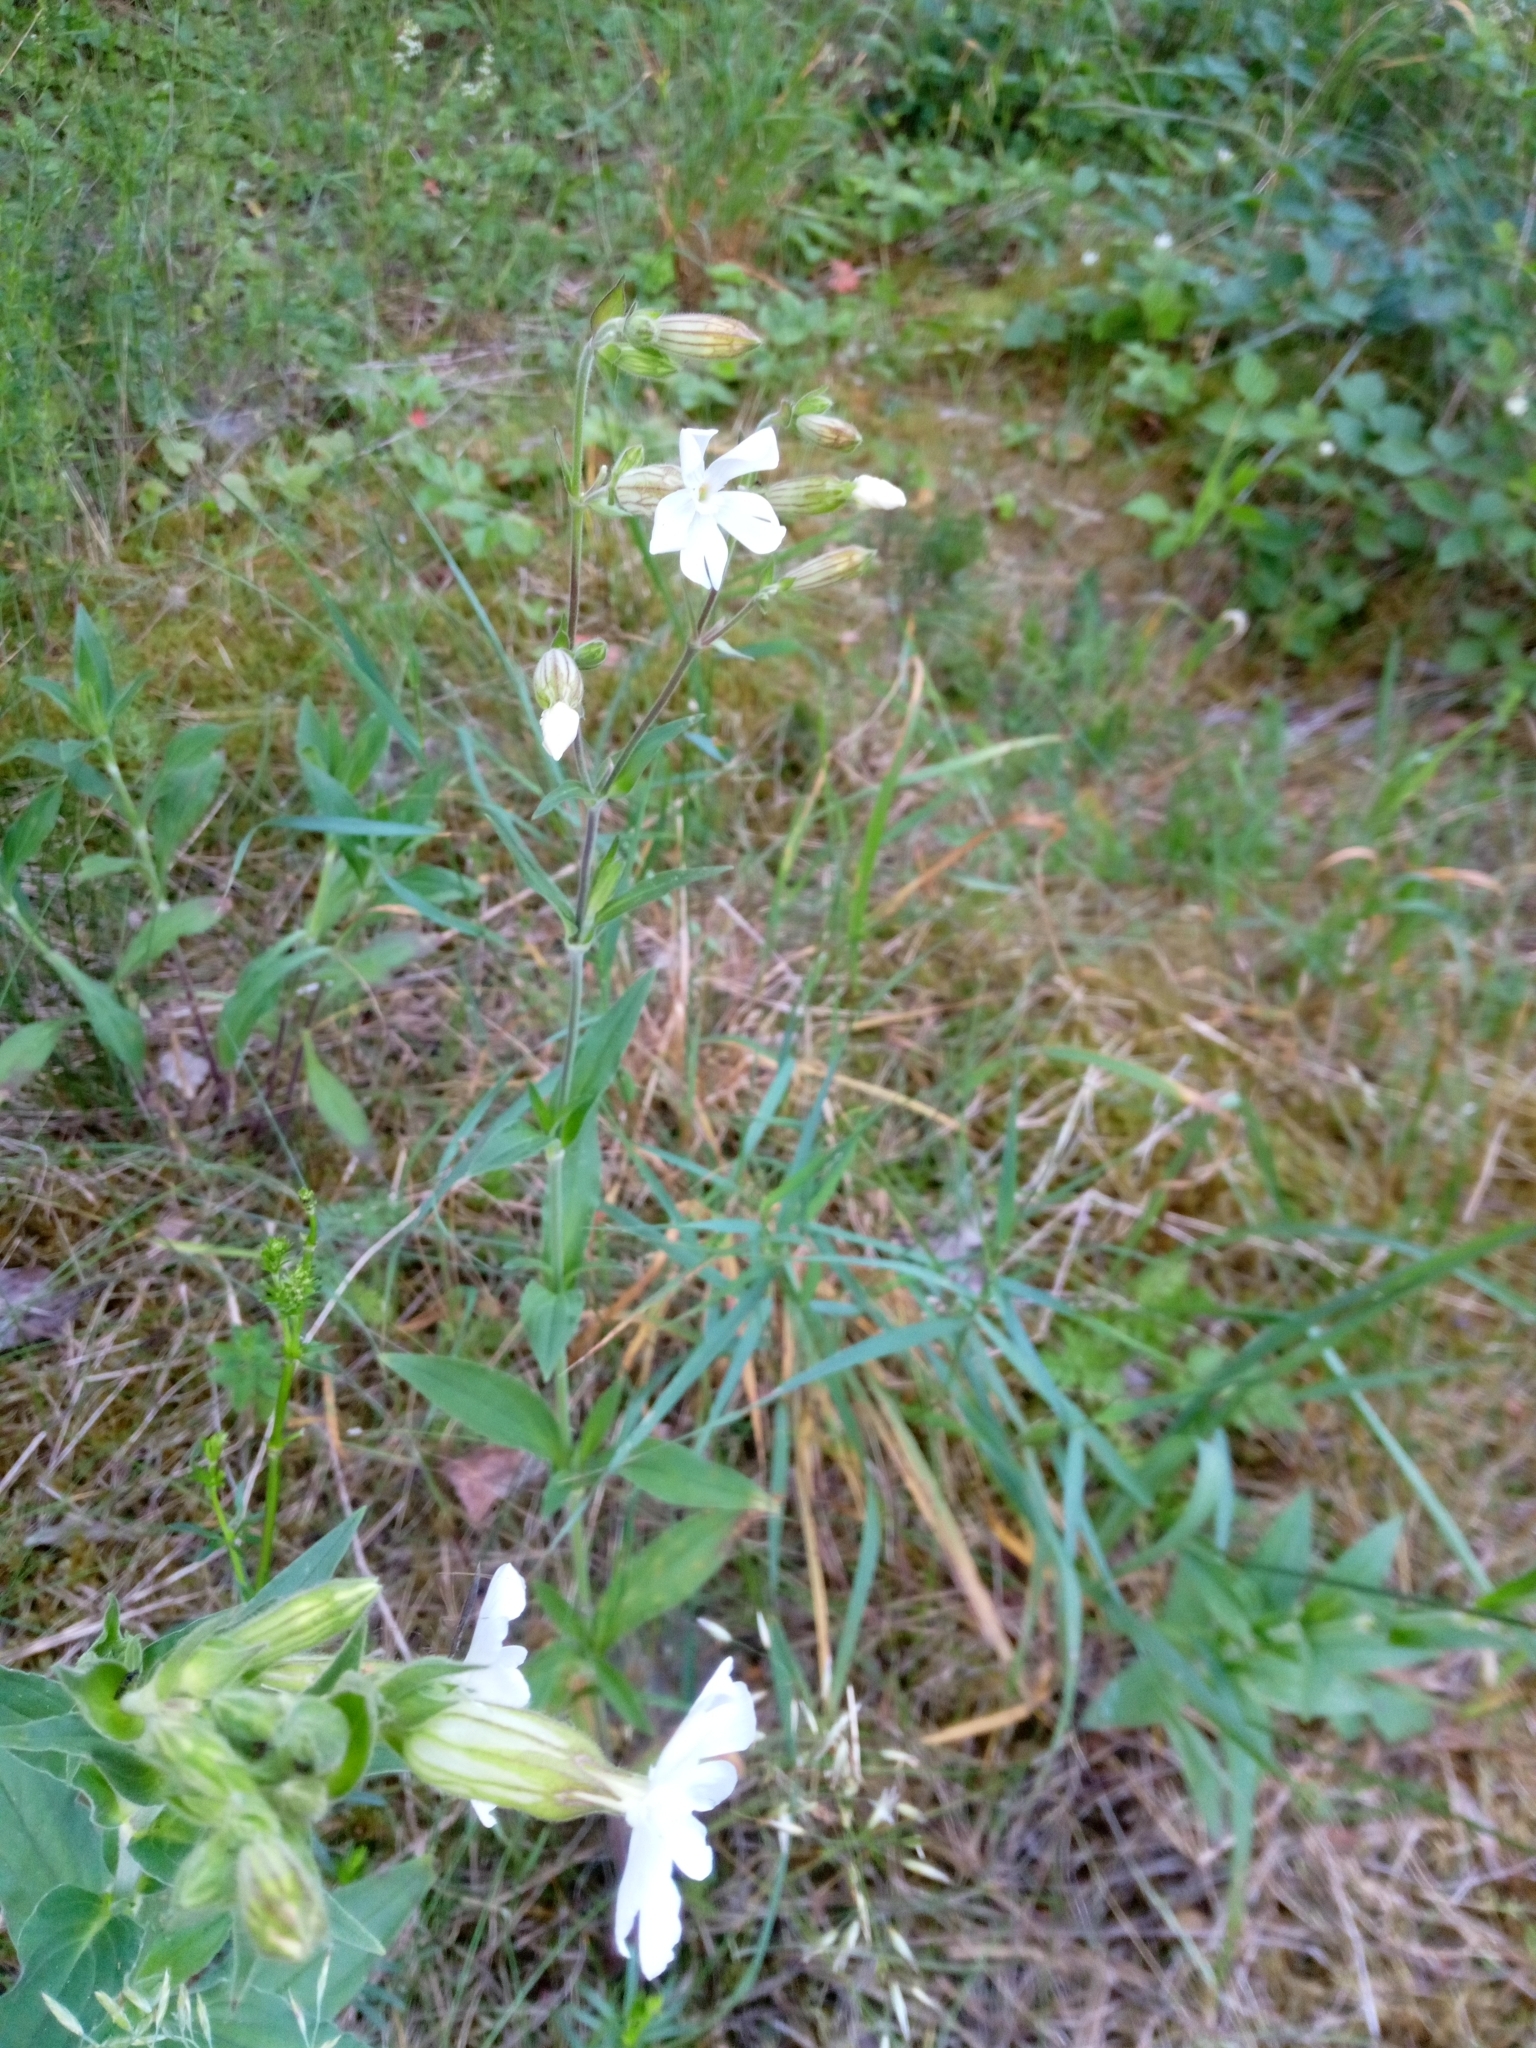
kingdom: Plantae
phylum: Tracheophyta
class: Magnoliopsida
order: Caryophyllales
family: Caryophyllaceae
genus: Silene
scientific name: Silene latifolia
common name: White campion
